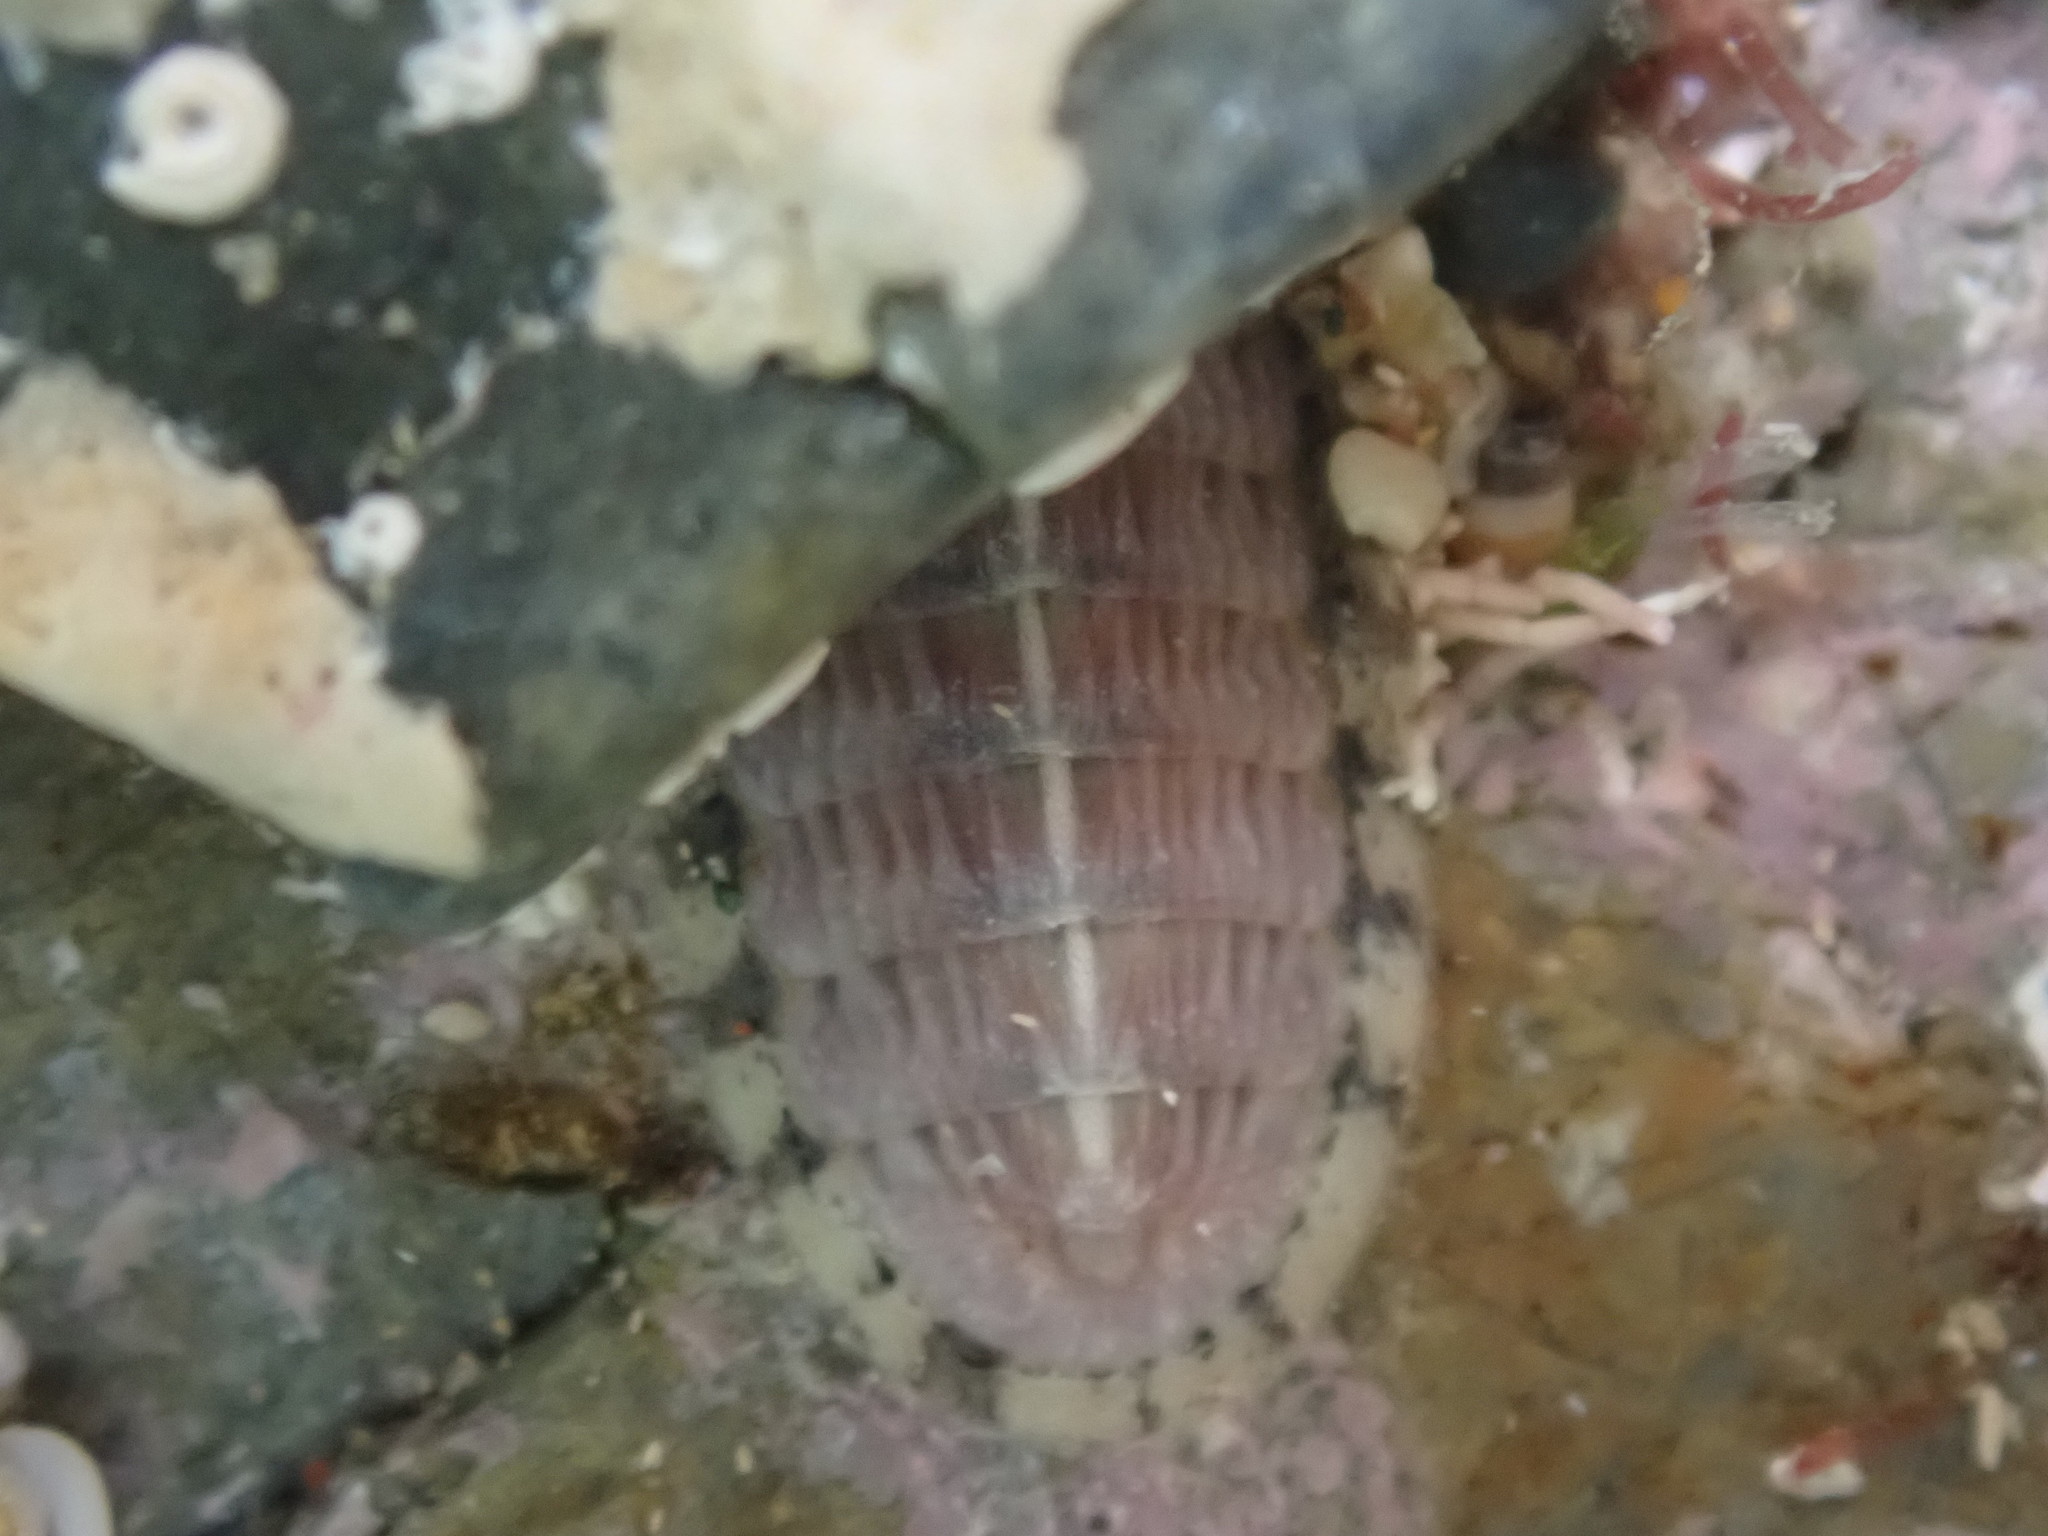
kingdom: Animalia
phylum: Mollusca
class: Polyplacophora
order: Chitonida
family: Ischnochitonidae
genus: Ischnochiton
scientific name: Ischnochiton maorianus
